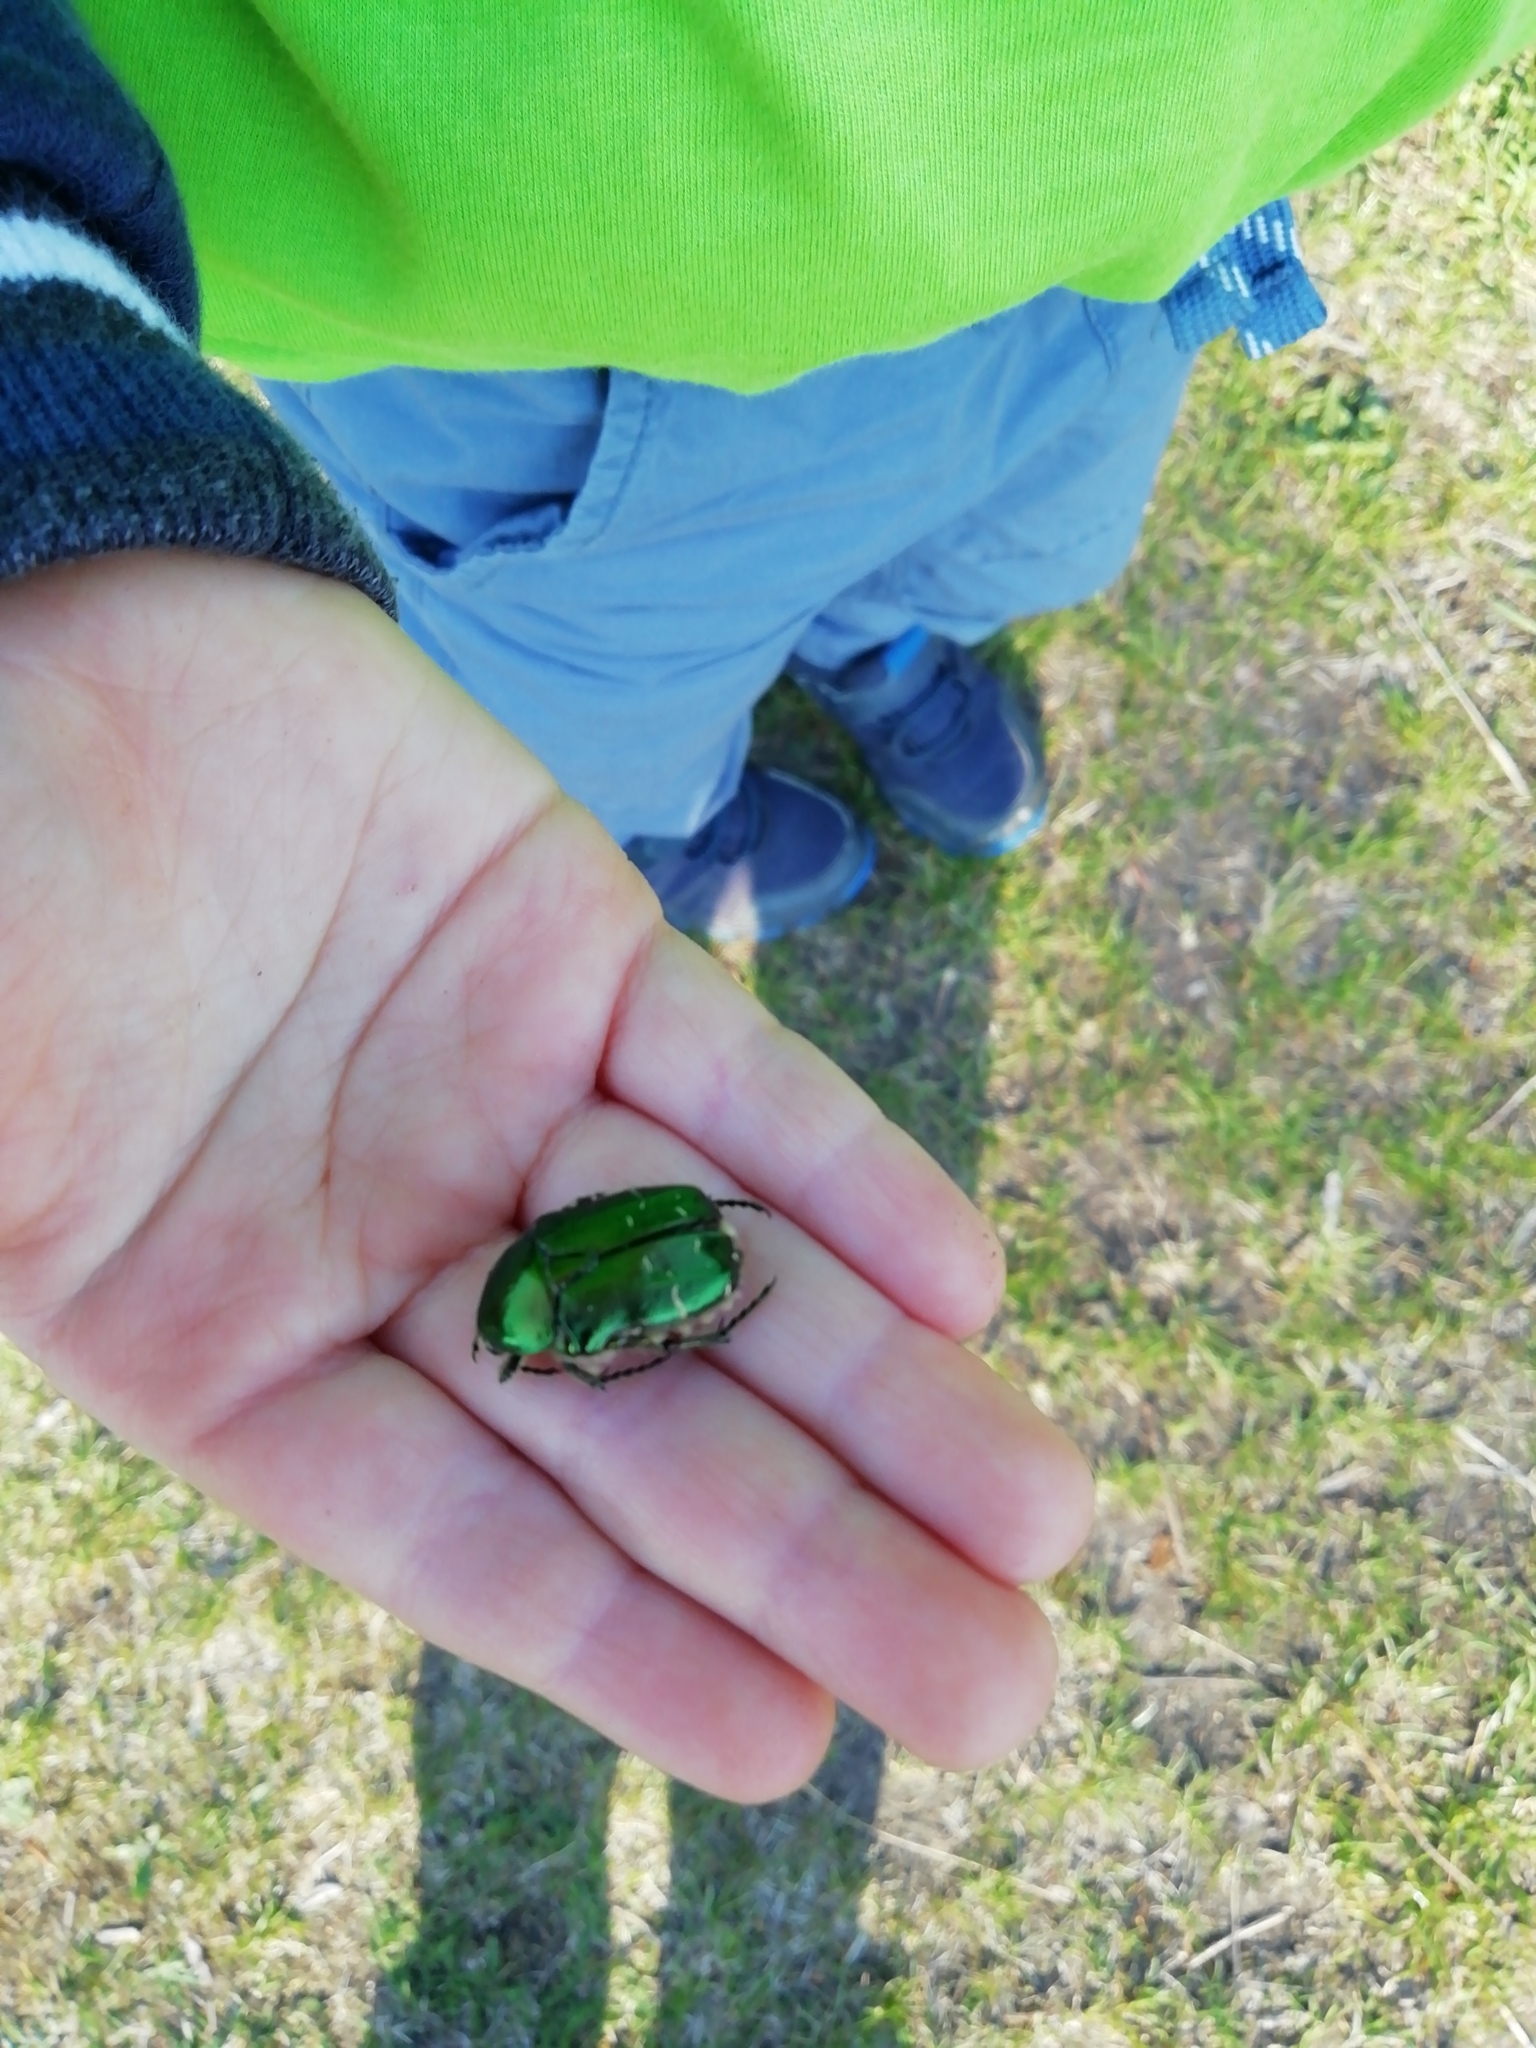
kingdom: Animalia
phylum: Arthropoda
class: Insecta
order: Coleoptera
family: Scarabaeidae
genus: Cetonia
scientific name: Cetonia aurata
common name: Rose chafer
